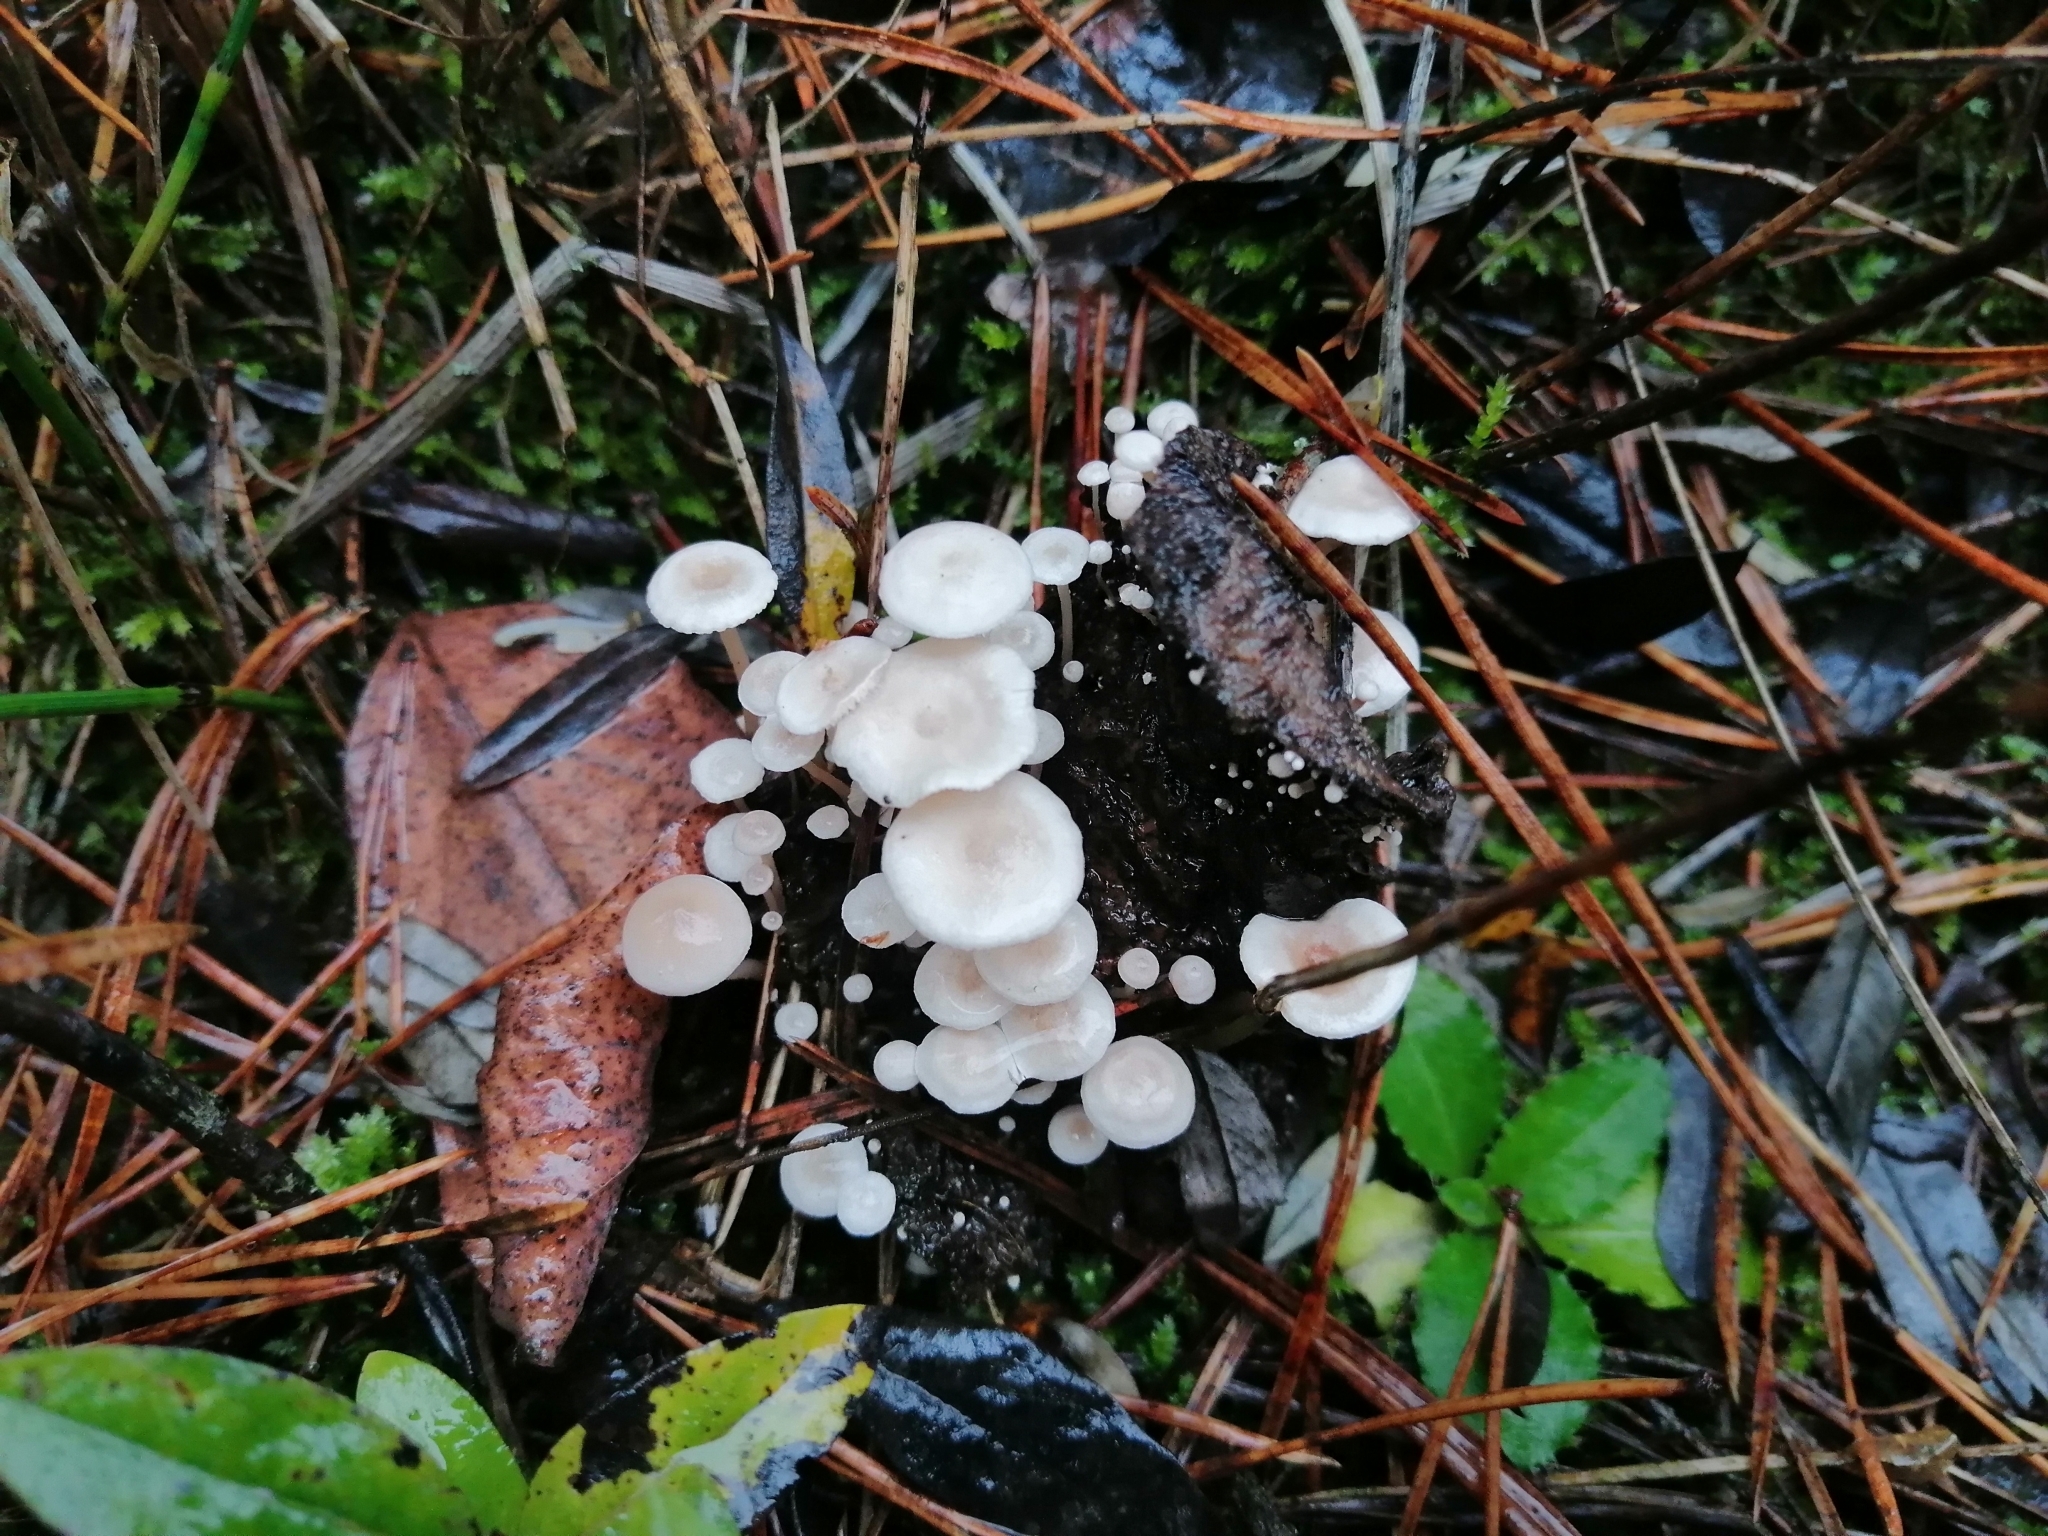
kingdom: Fungi
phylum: Basidiomycota
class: Agaricomycetes
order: Agaricales
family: Tricholomataceae
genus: Collybia
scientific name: Collybia cirrhata
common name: Piggyback shanklet
